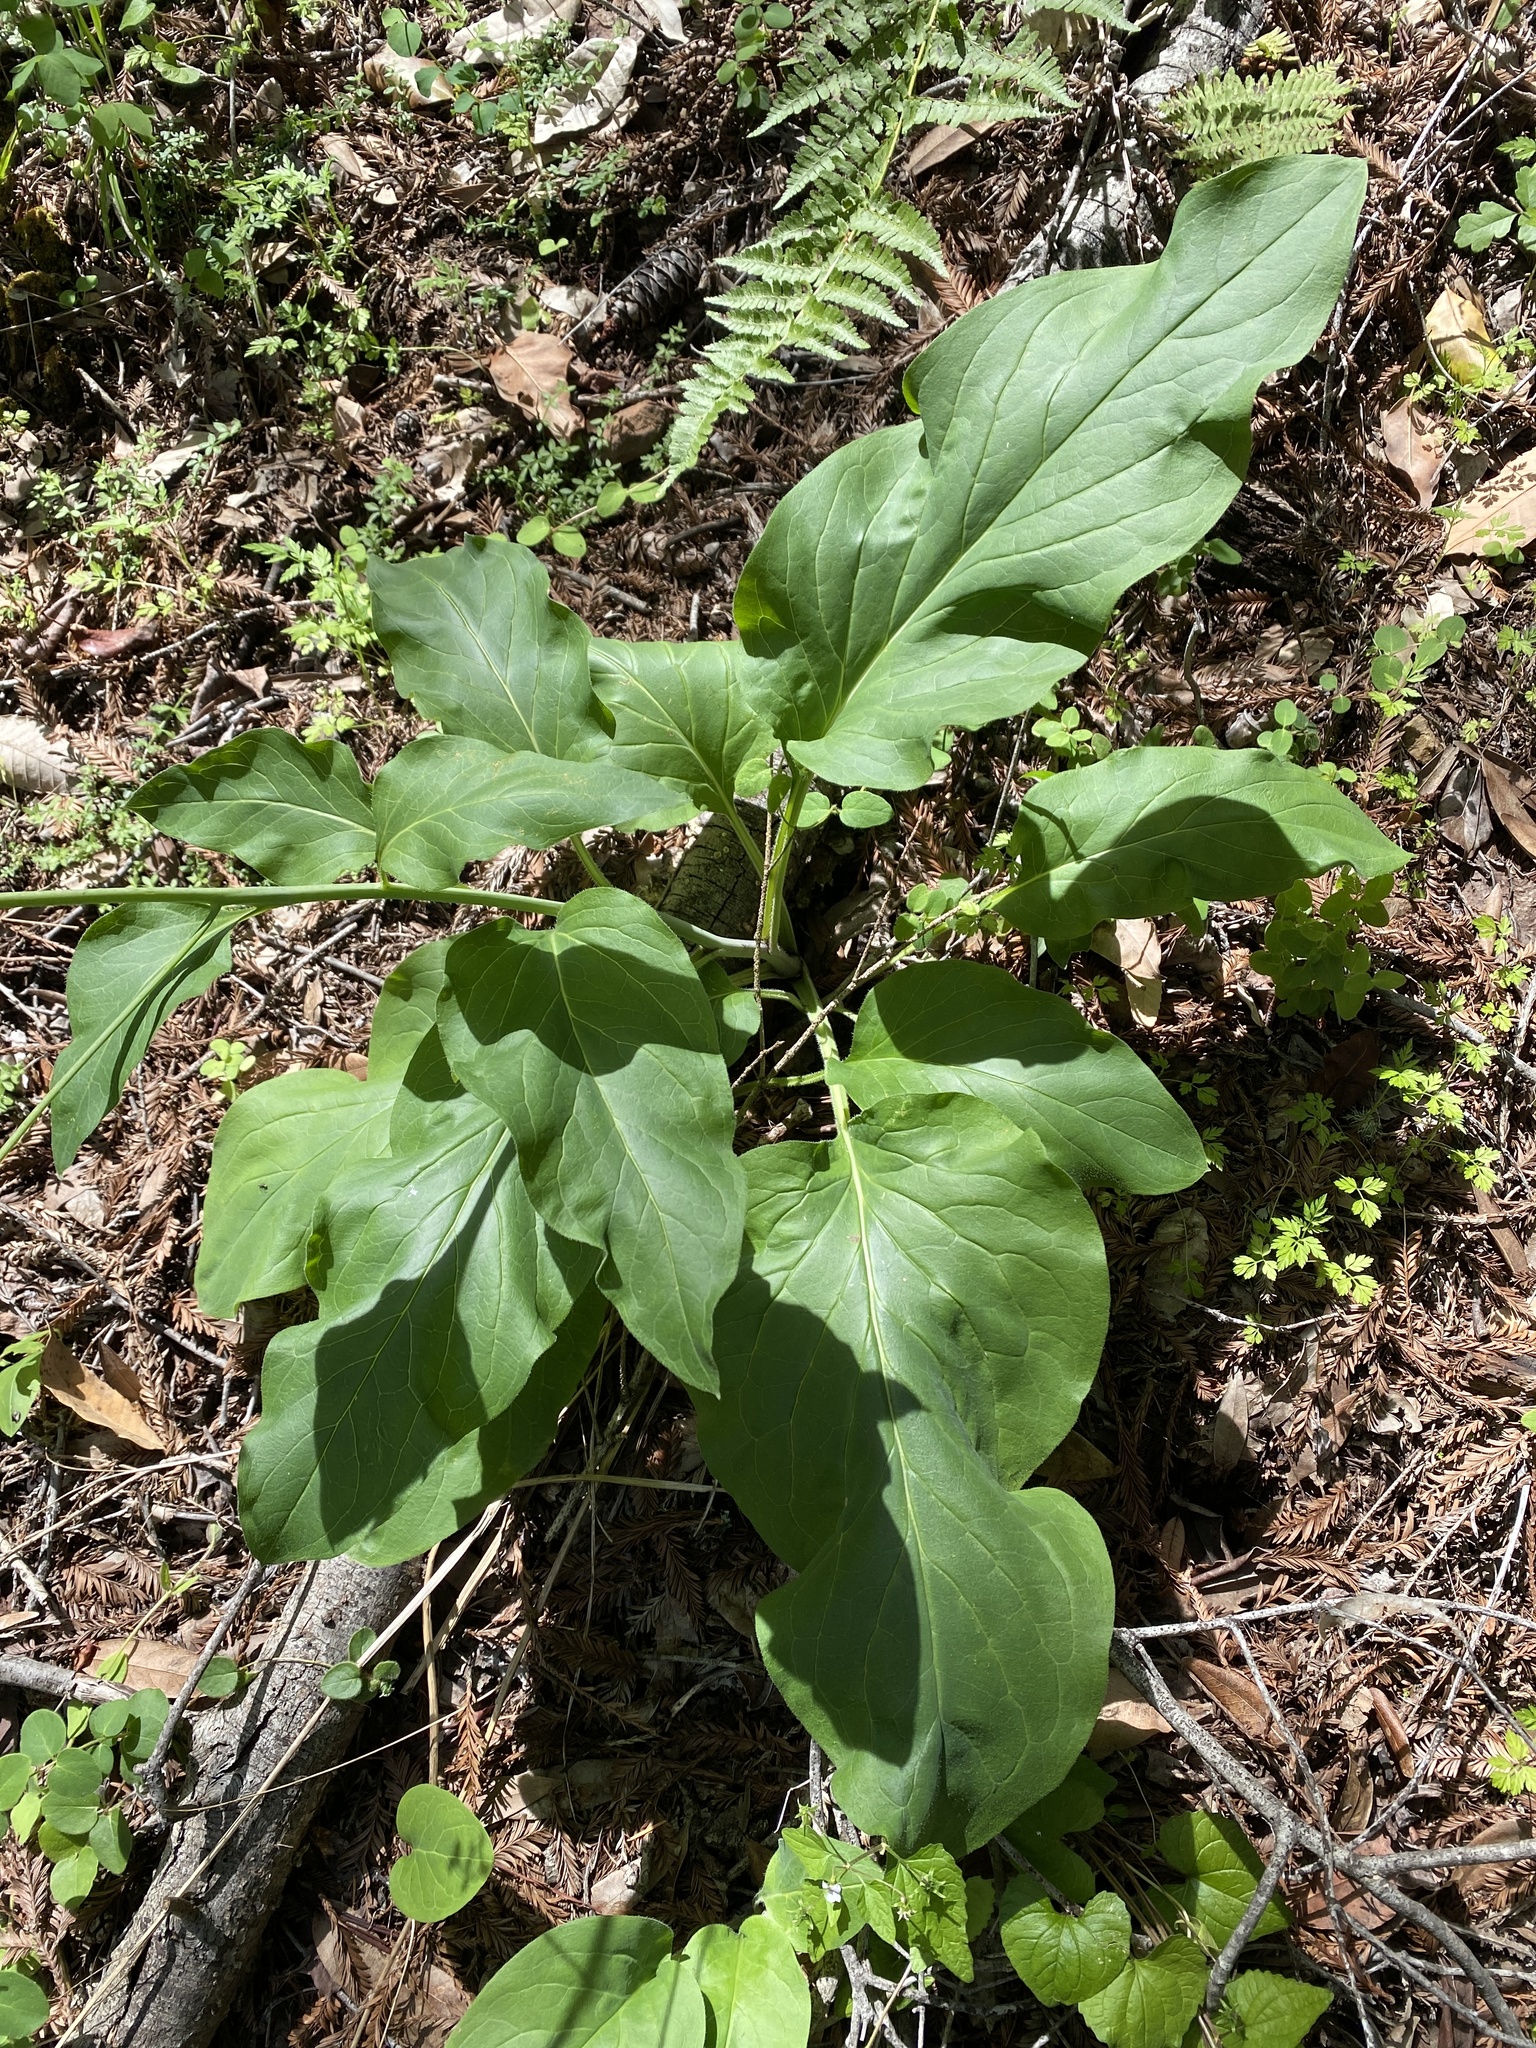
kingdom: Plantae
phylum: Tracheophyta
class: Magnoliopsida
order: Boraginales
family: Boraginaceae
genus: Adelinia
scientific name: Adelinia grande
